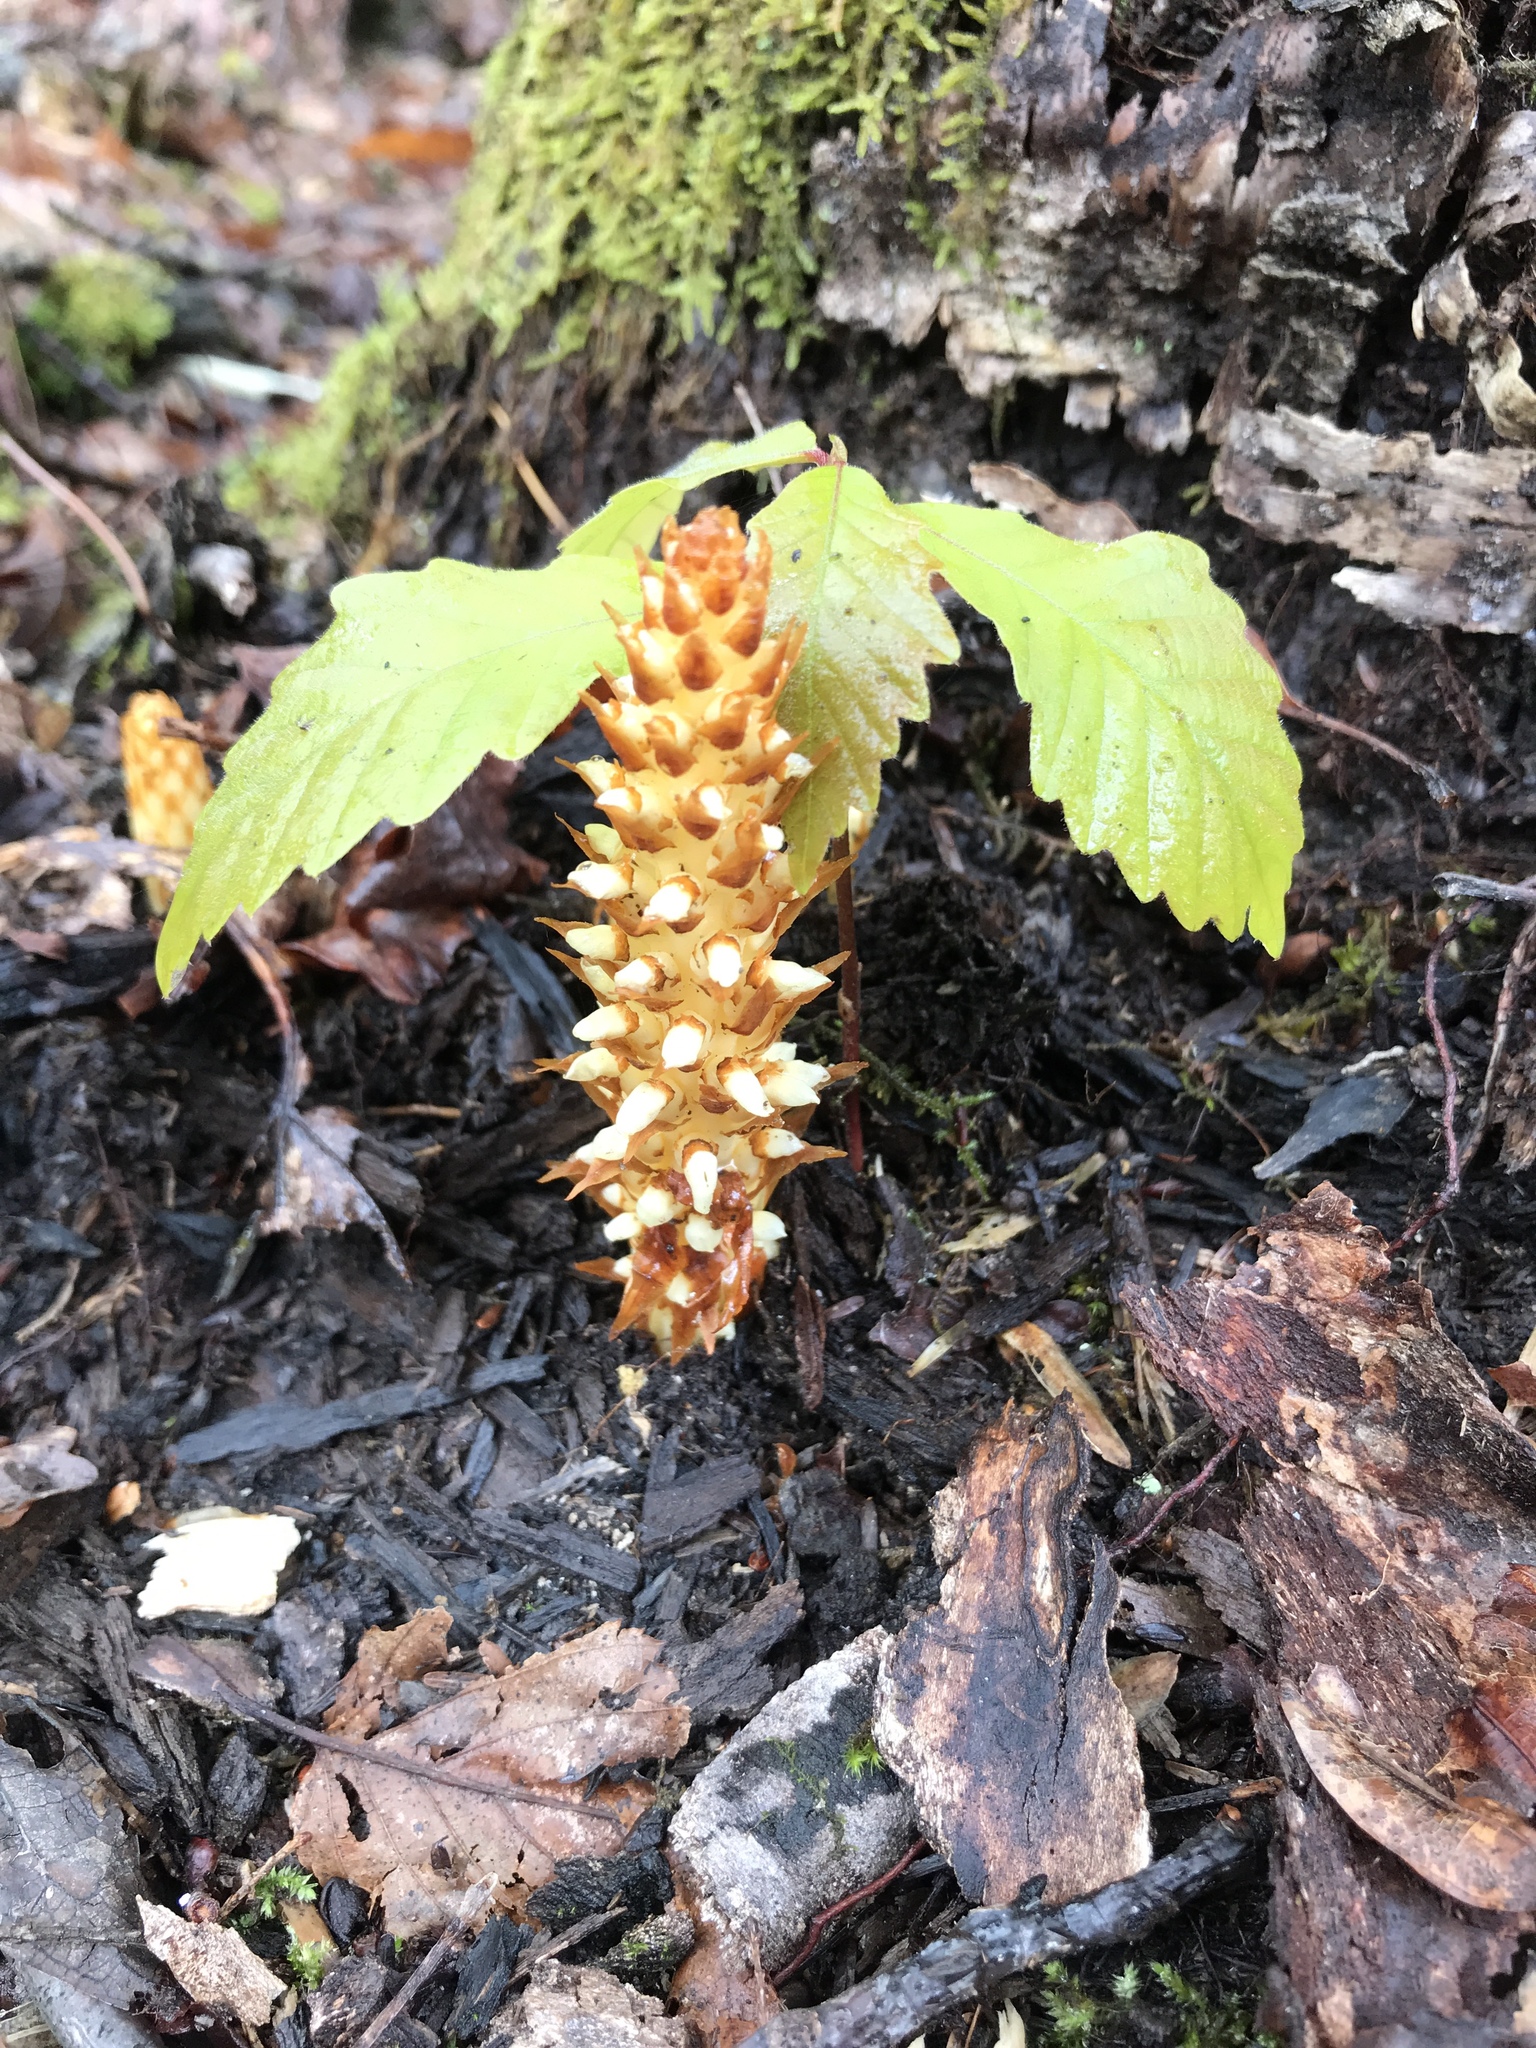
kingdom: Plantae
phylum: Tracheophyta
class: Magnoliopsida
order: Lamiales
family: Orobanchaceae
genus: Conopholis
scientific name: Conopholis americana
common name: American cancer-root
